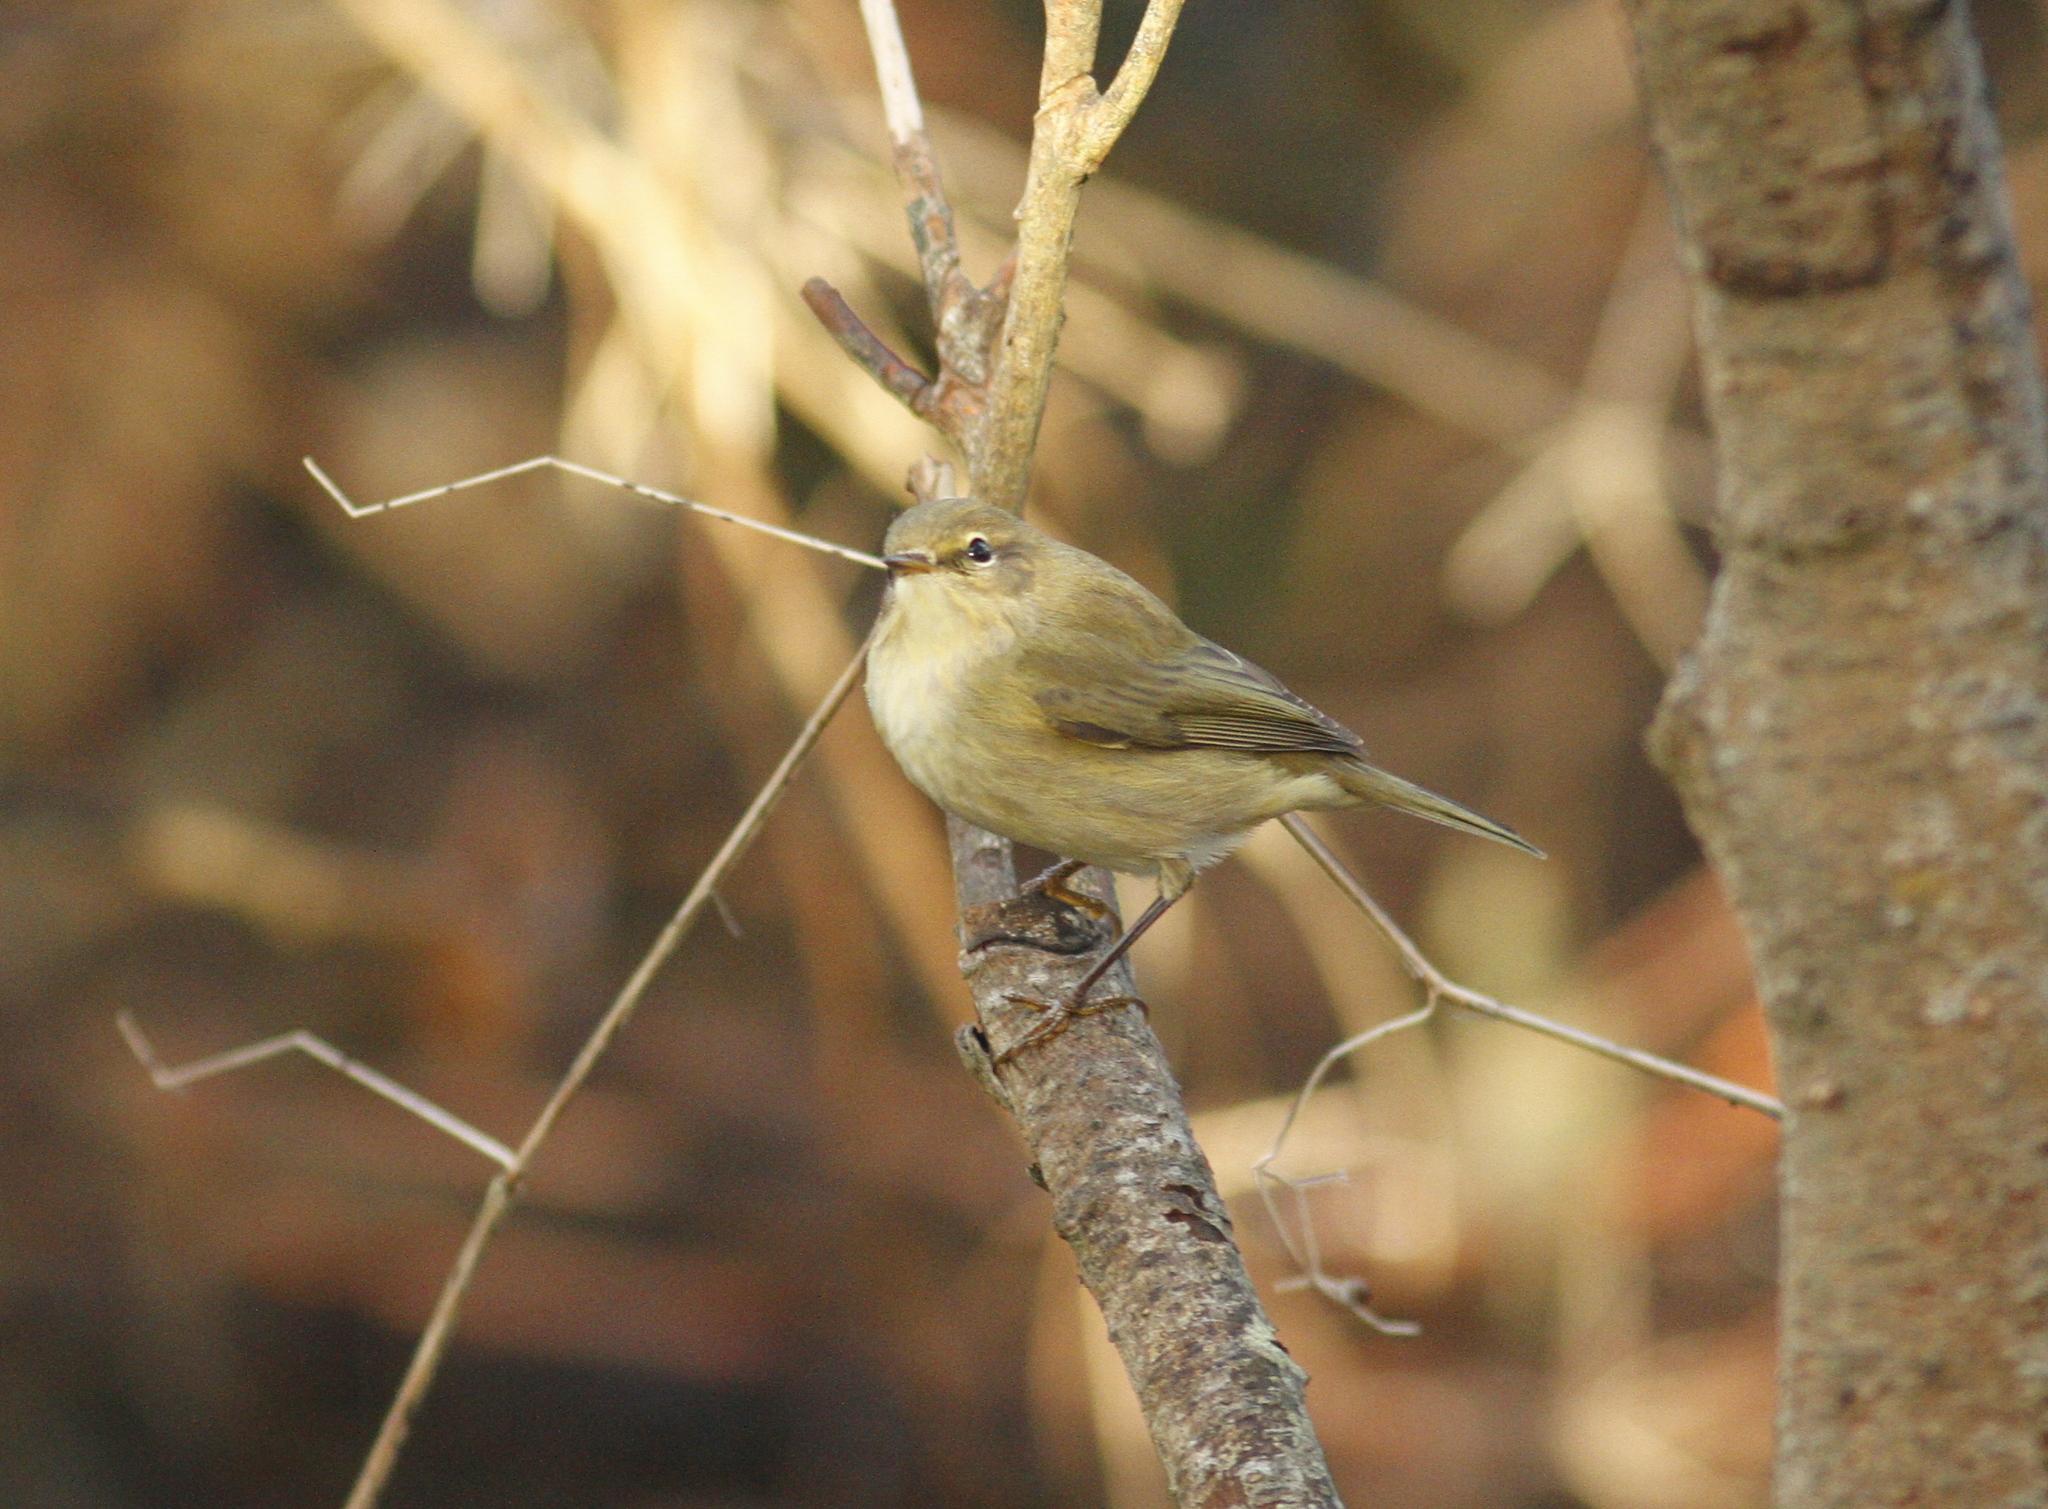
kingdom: Animalia
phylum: Chordata
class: Aves
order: Passeriformes
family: Phylloscopidae
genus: Phylloscopus
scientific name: Phylloscopus collybita
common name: Common chiffchaff
